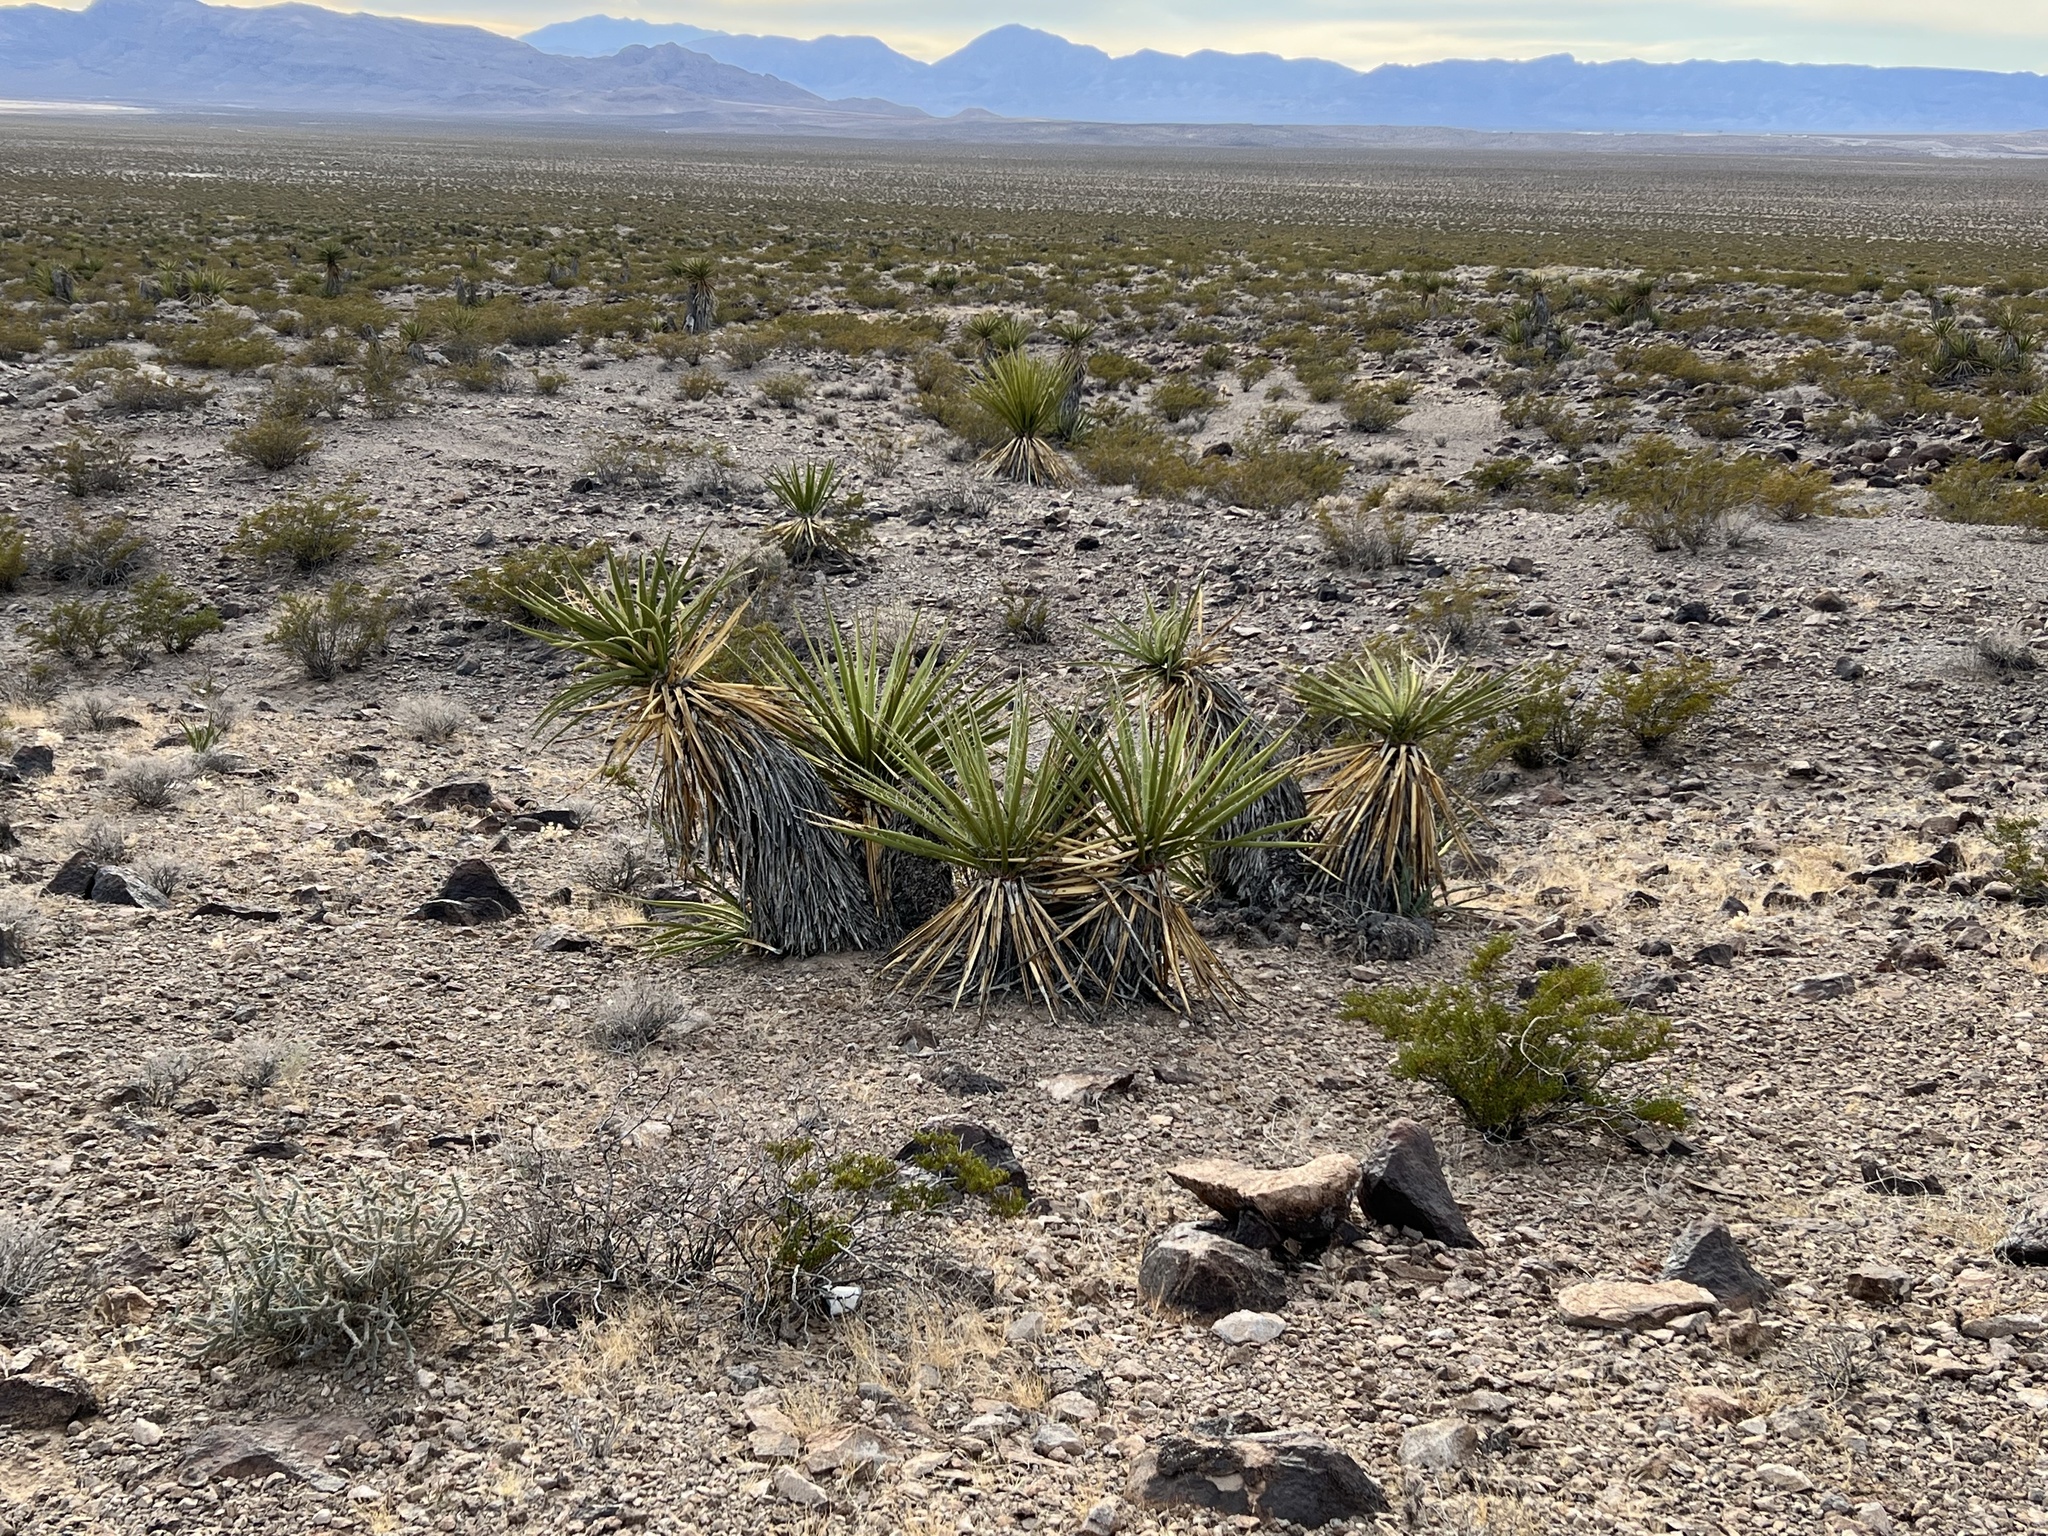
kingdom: Plantae
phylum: Tracheophyta
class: Liliopsida
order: Asparagales
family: Asparagaceae
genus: Yucca
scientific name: Yucca schidigera
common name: Mojave yucca
